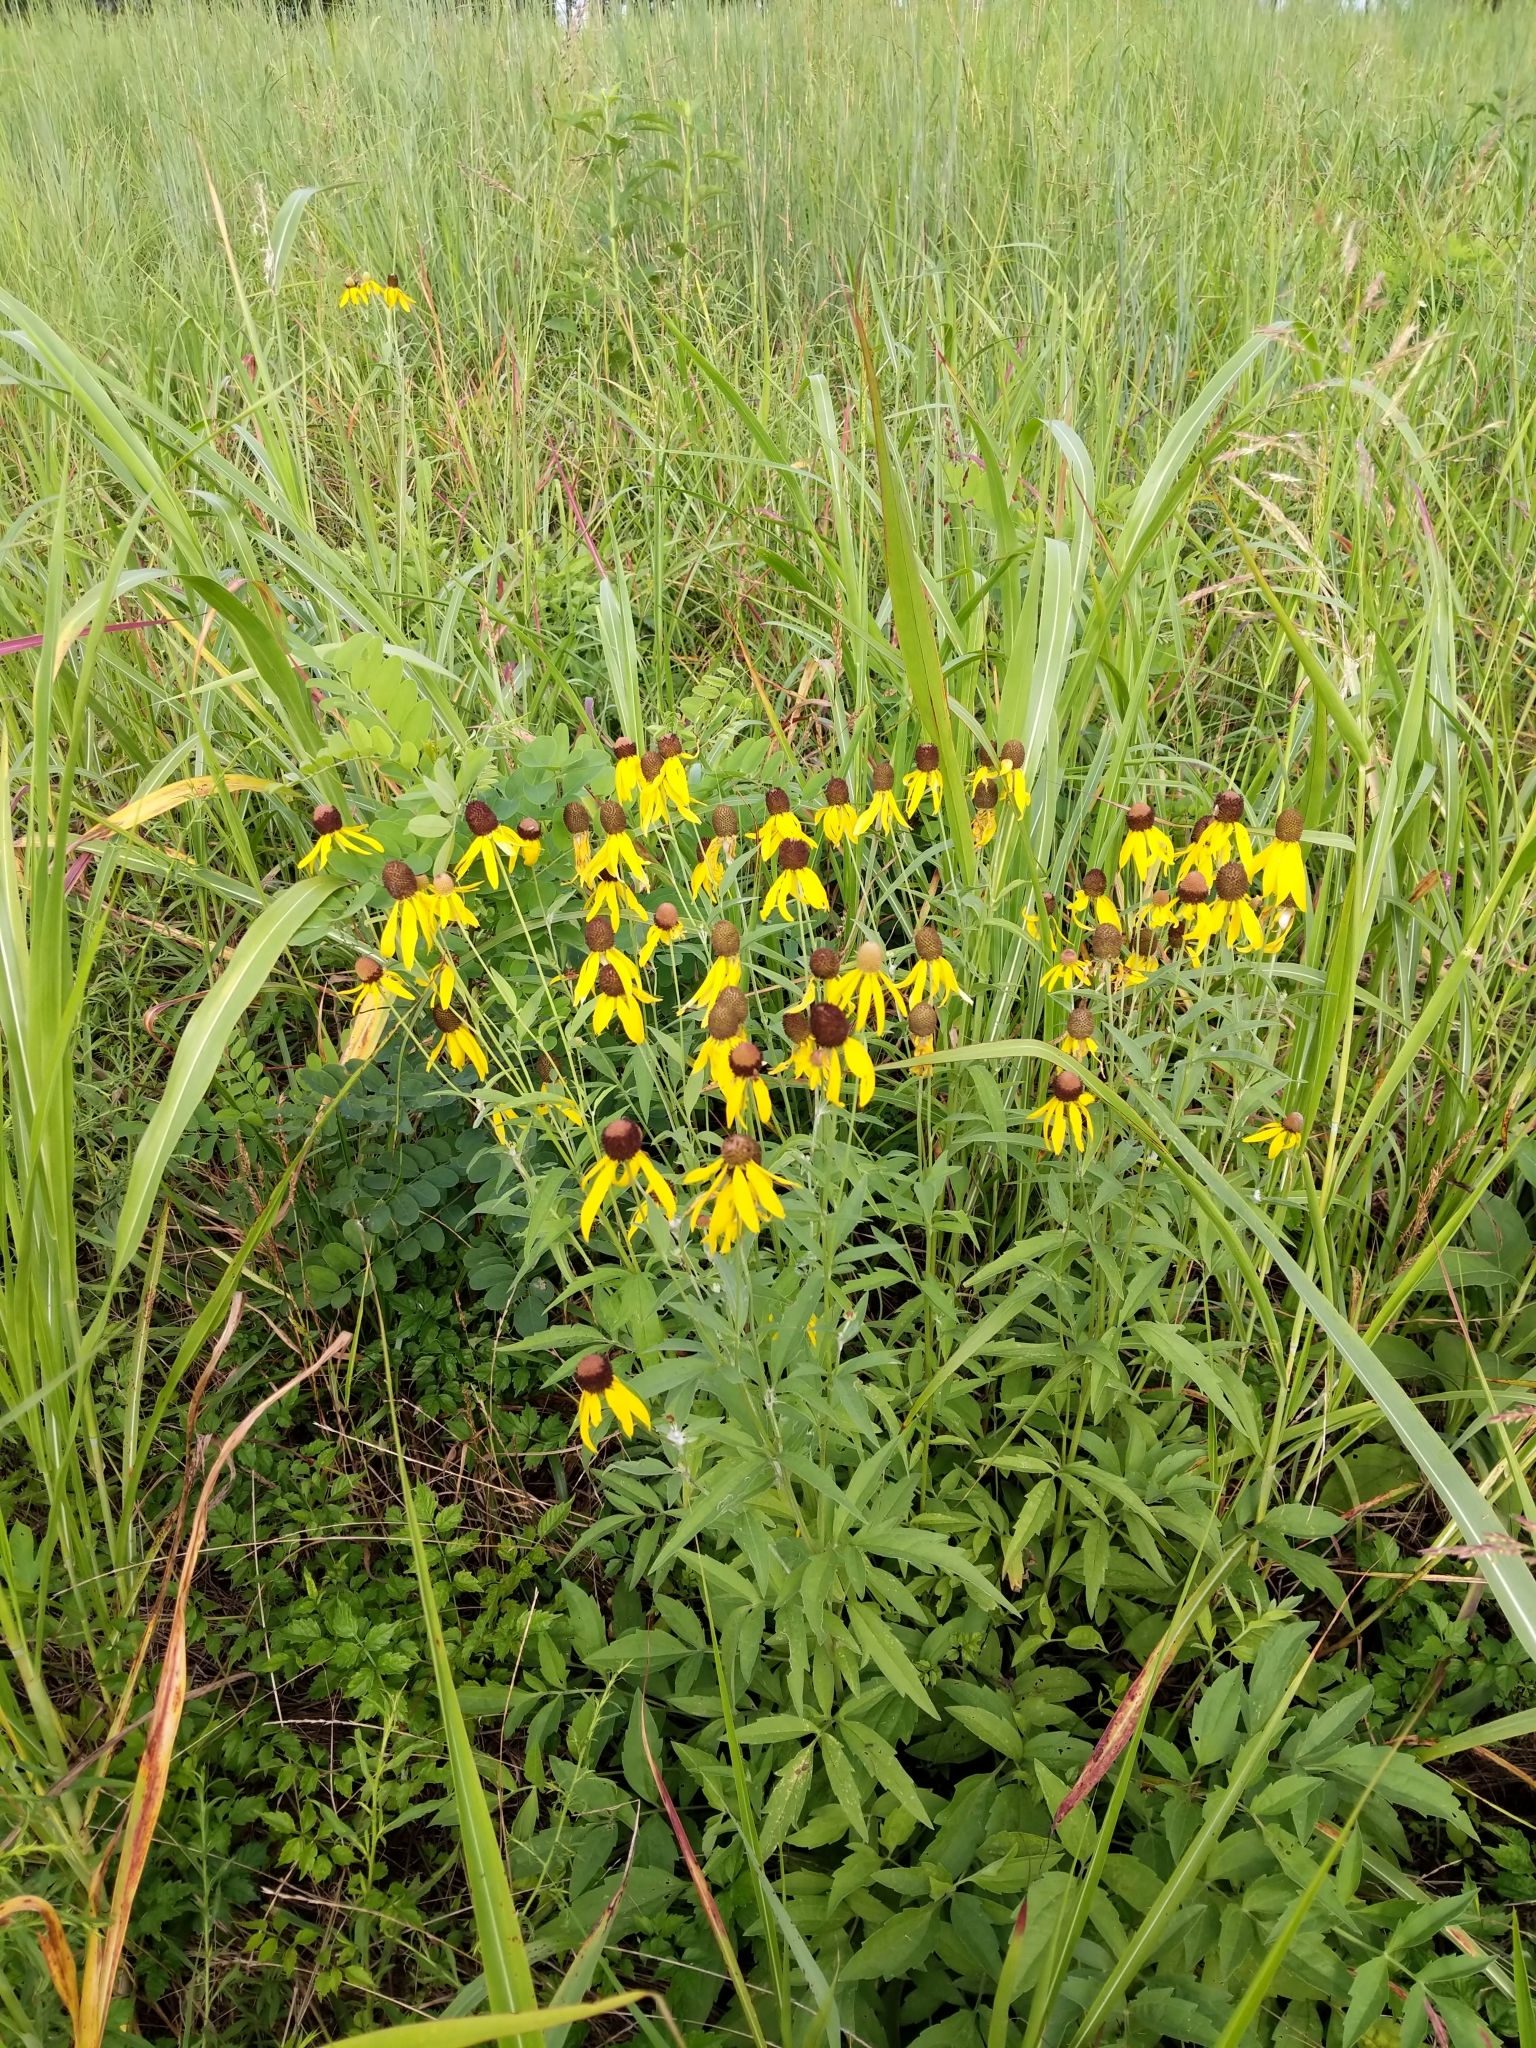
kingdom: Plantae
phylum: Tracheophyta
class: Magnoliopsida
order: Asterales
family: Asteraceae
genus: Ratibida
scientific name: Ratibida pinnata
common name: Drooping prairie-coneflower
